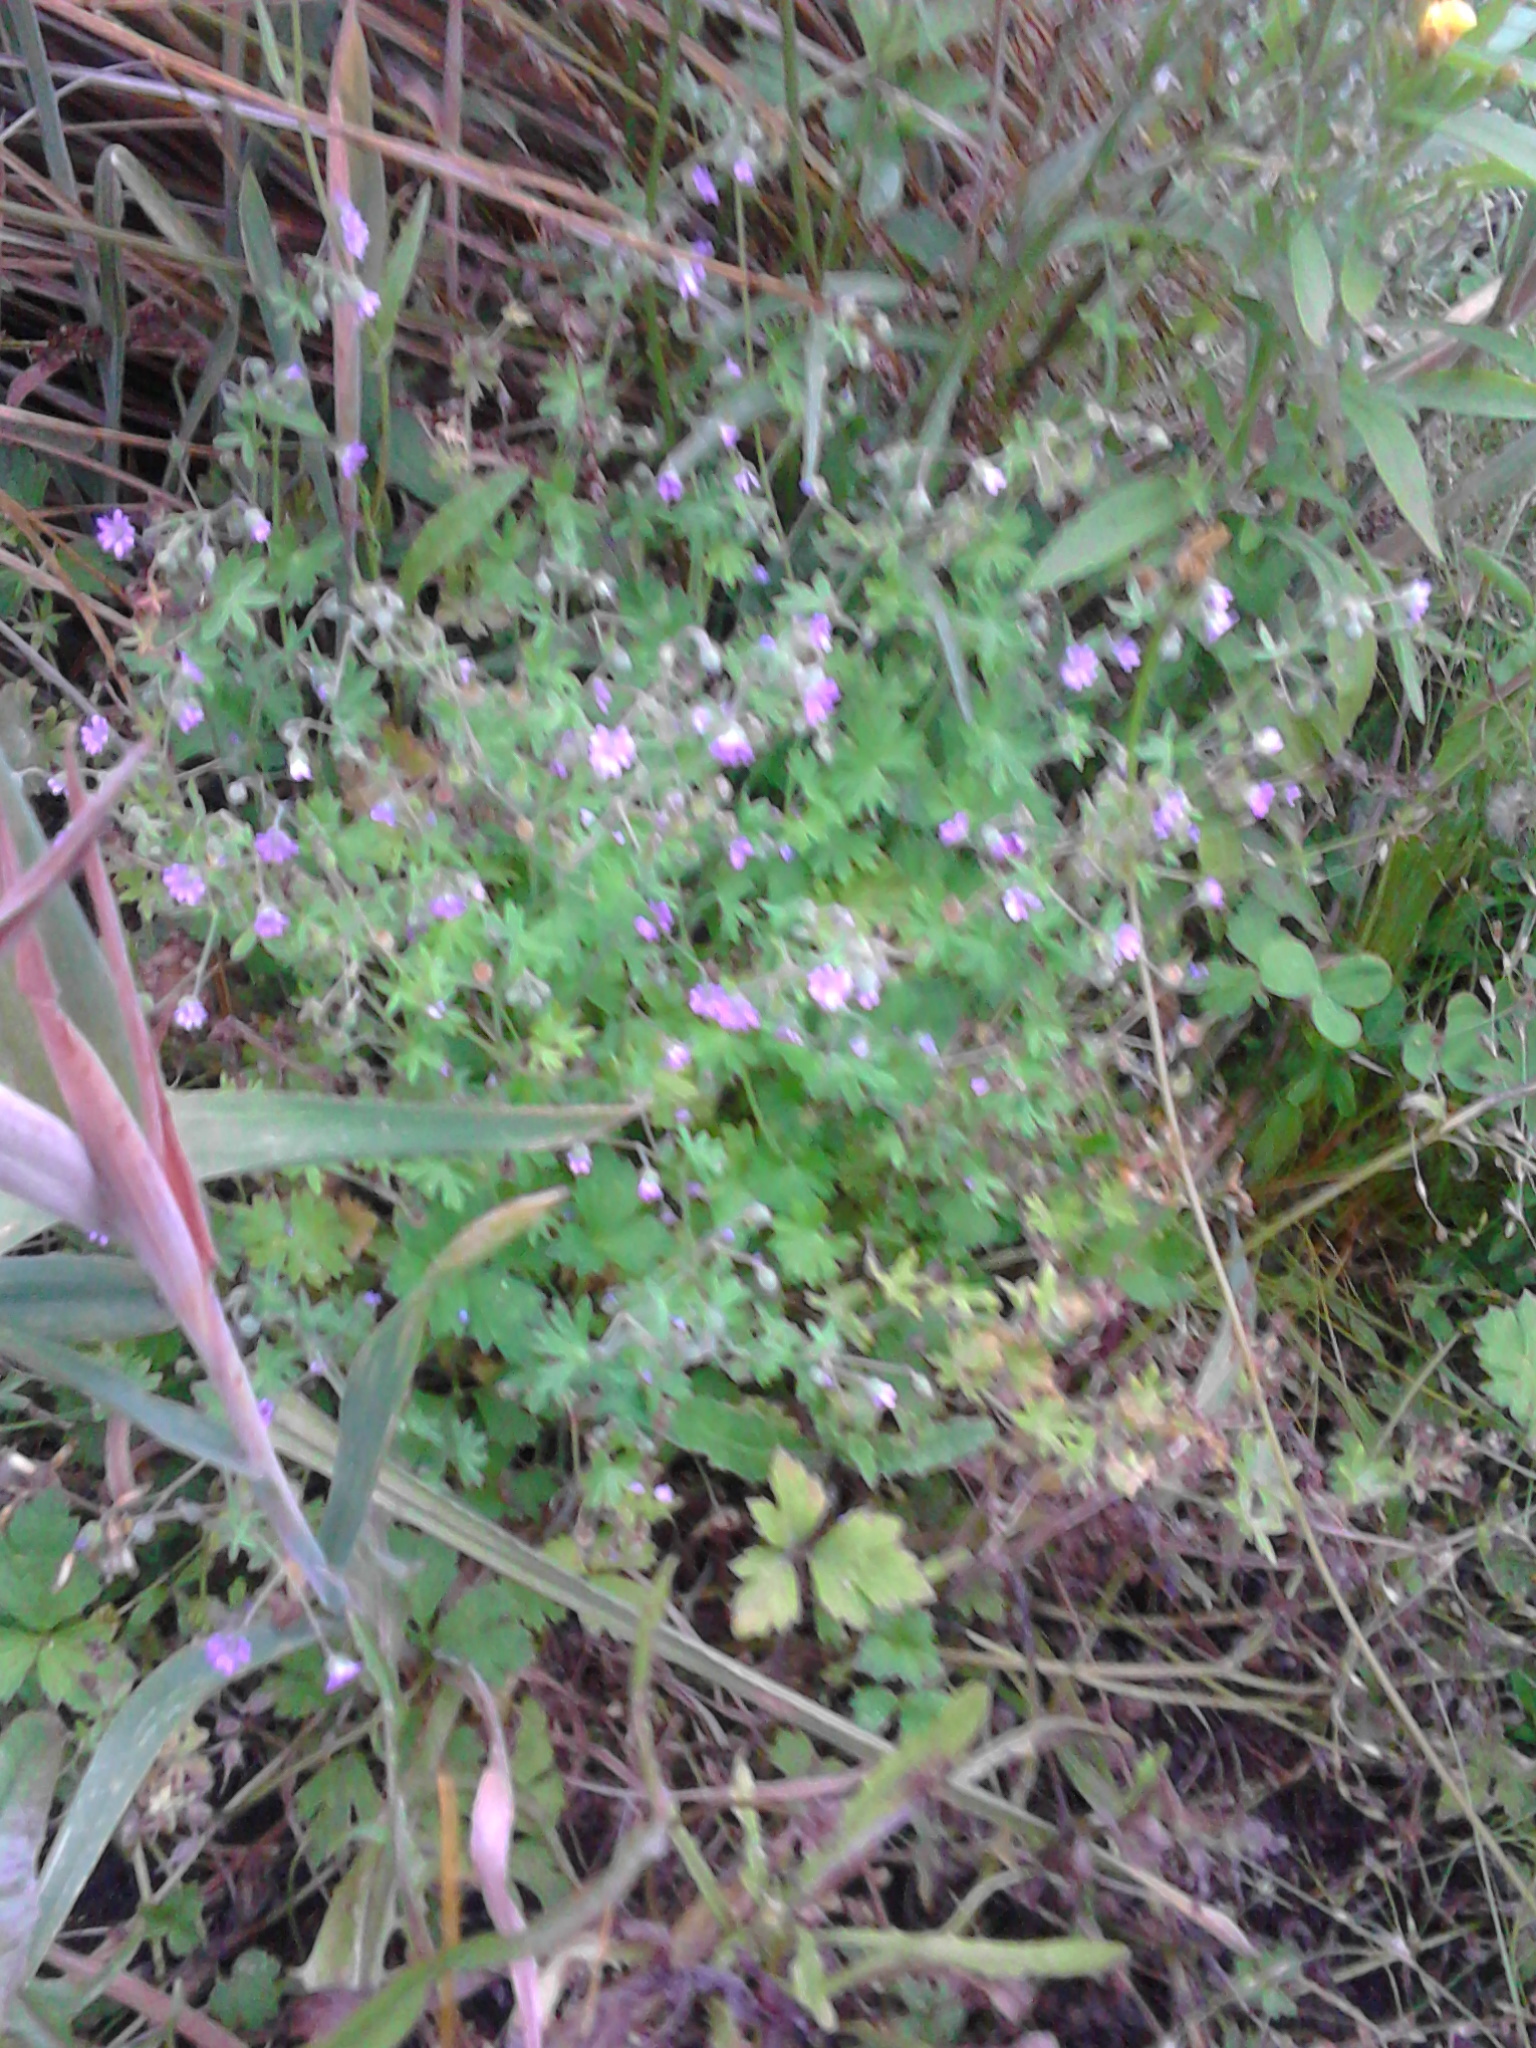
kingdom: Plantae
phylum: Tracheophyta
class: Magnoliopsida
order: Geraniales
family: Geraniaceae
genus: Geranium
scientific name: Geranium molle
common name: Dove's-foot crane's-bill
